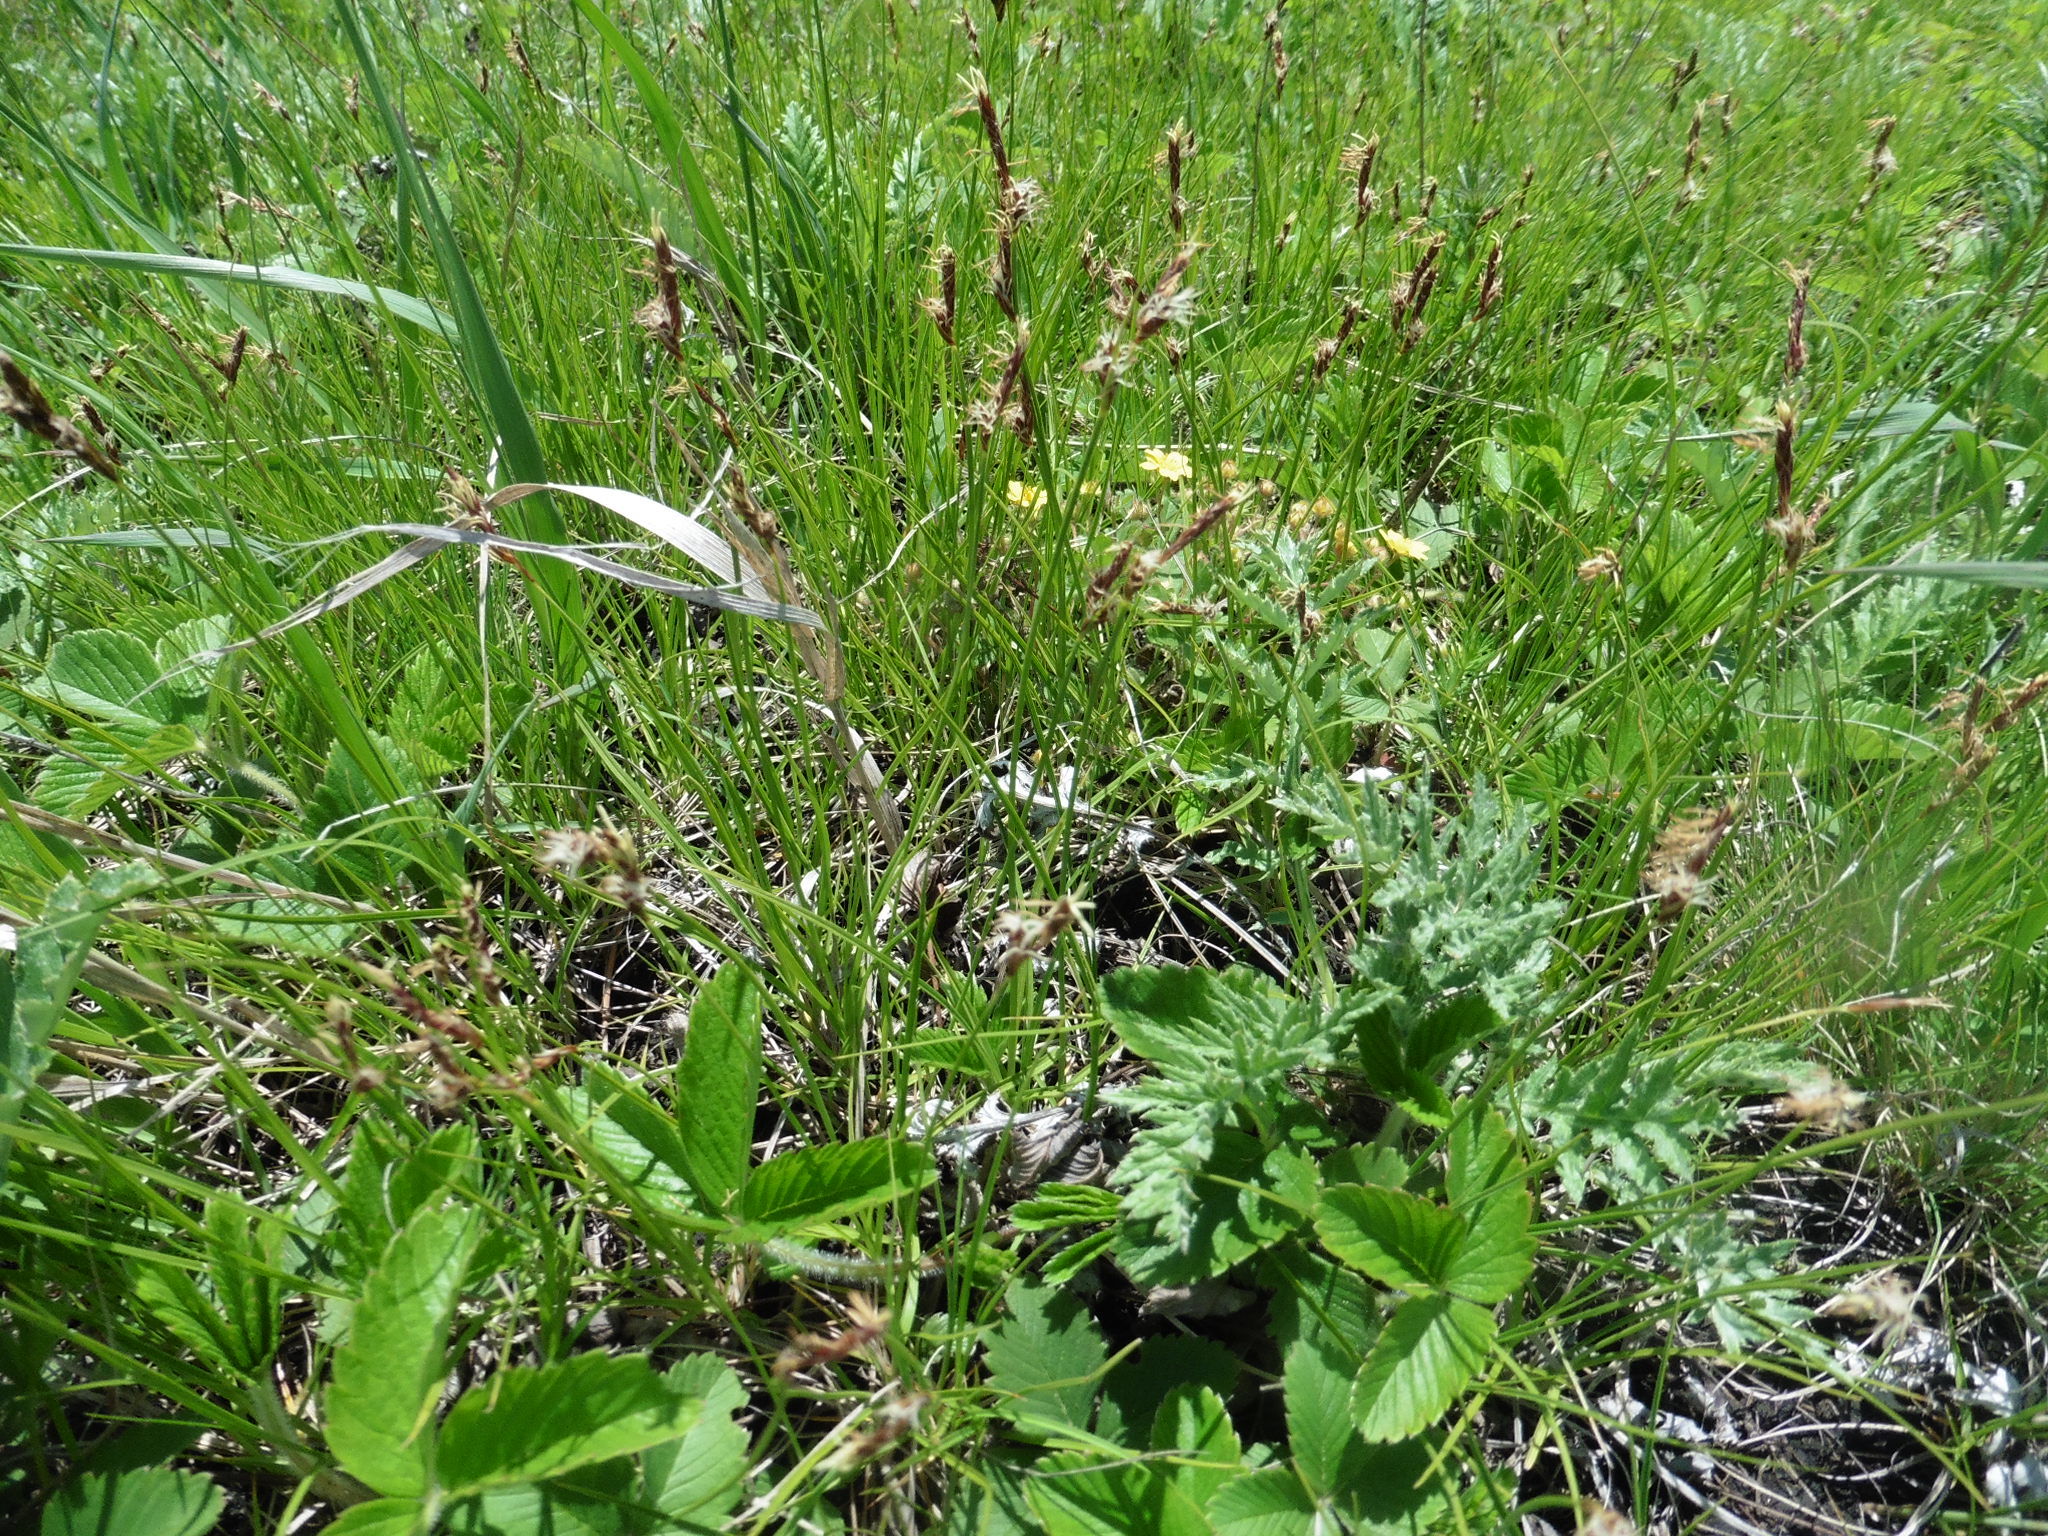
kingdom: Plantae
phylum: Tracheophyta
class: Liliopsida
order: Poales
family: Cyperaceae
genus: Carex
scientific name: Carex praecox
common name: Early sedge
